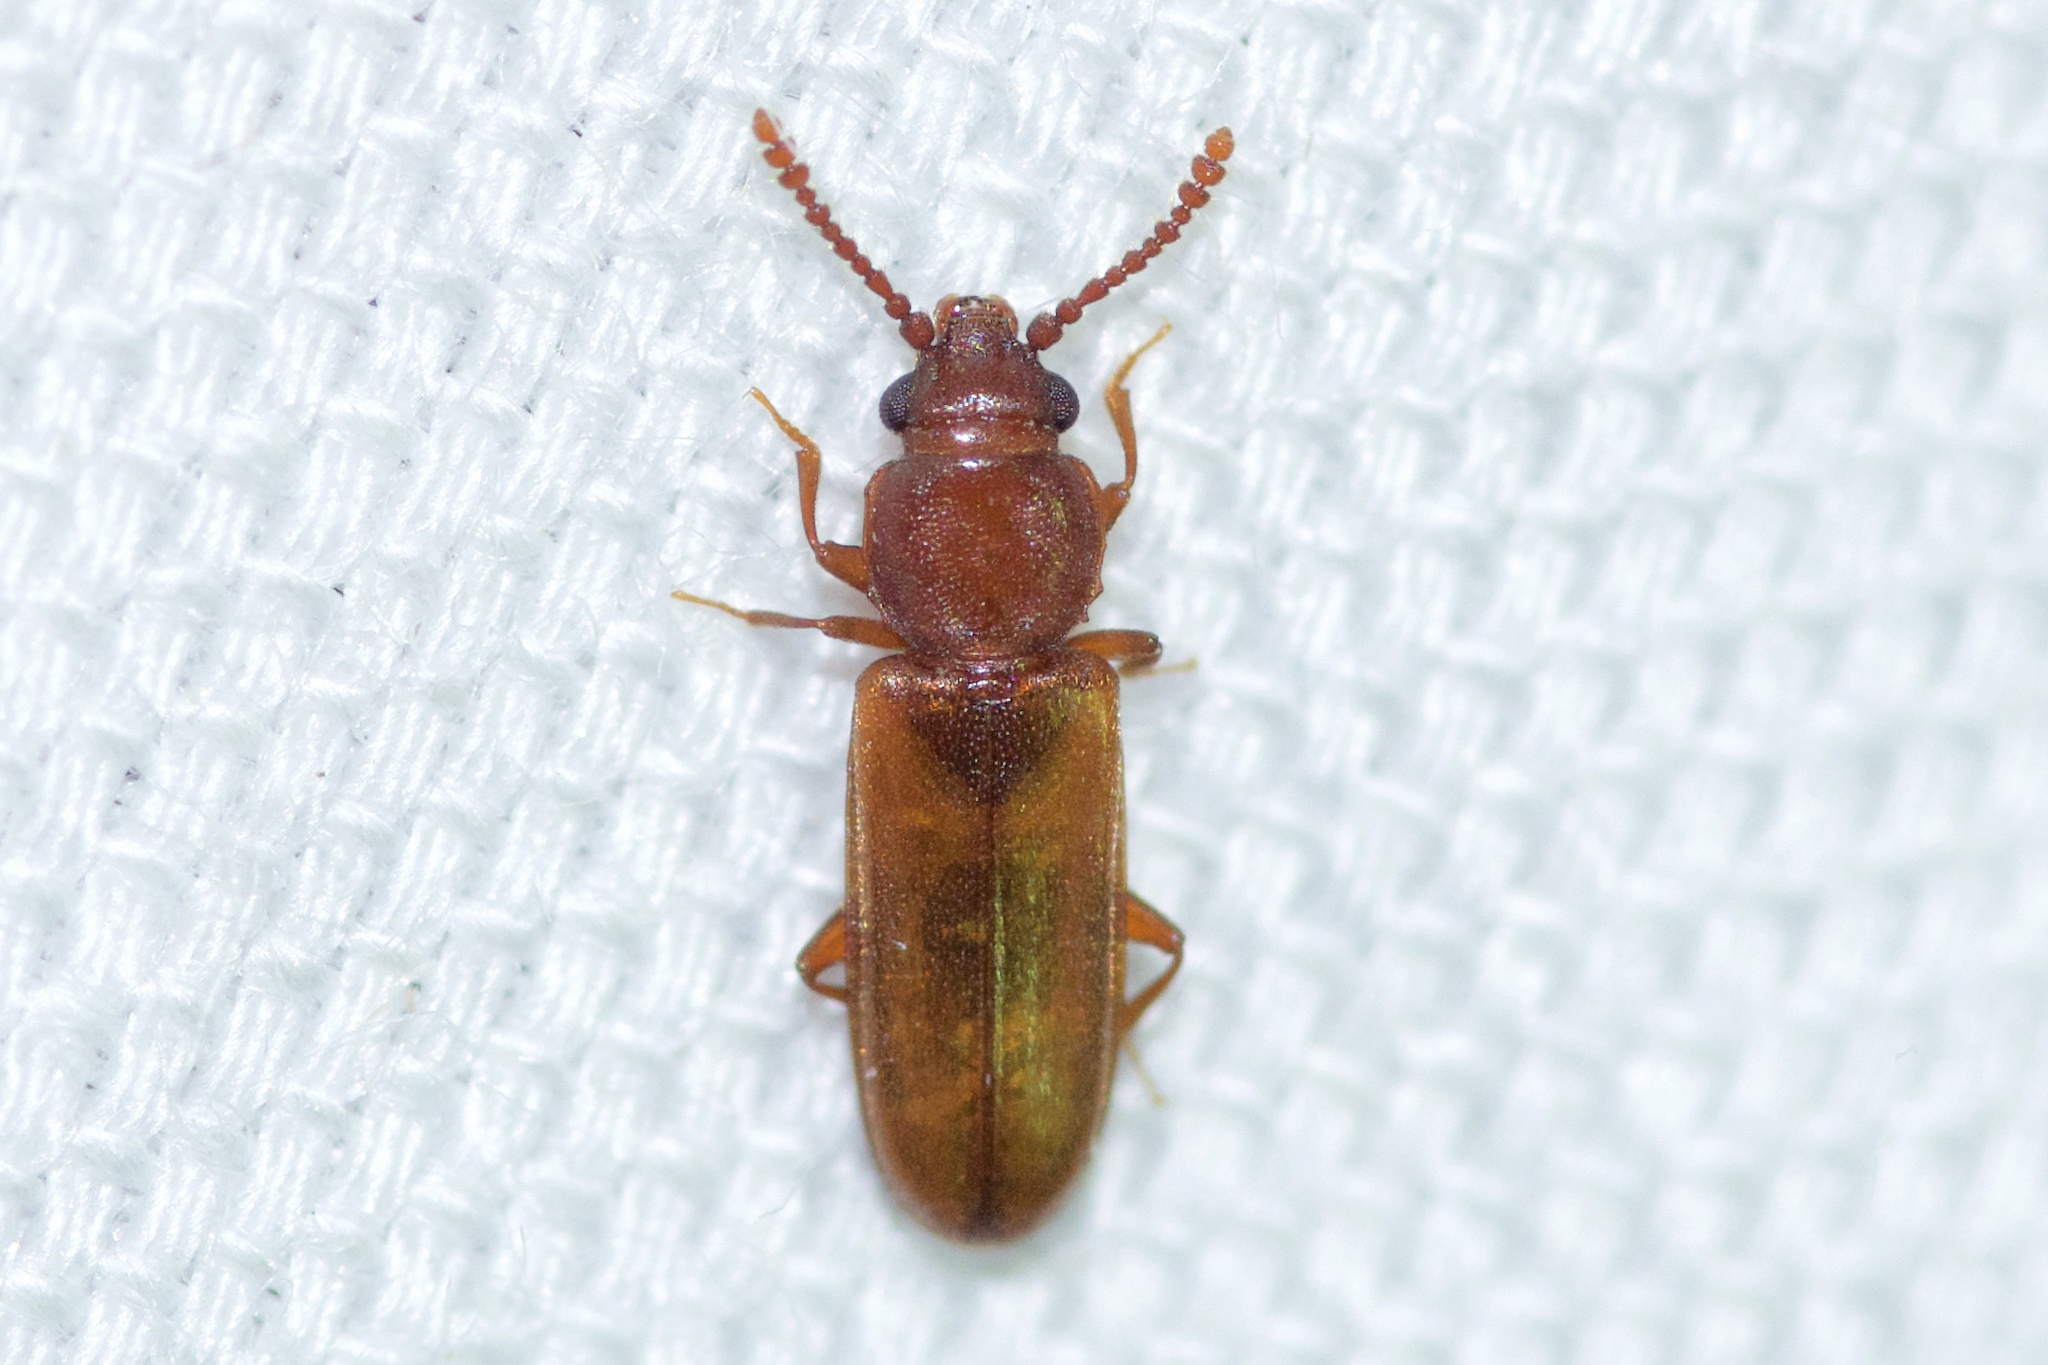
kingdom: Animalia
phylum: Arthropoda
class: Insecta
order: Coleoptera
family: Cucujidae
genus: Pediacus
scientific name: Pediacus depressus
